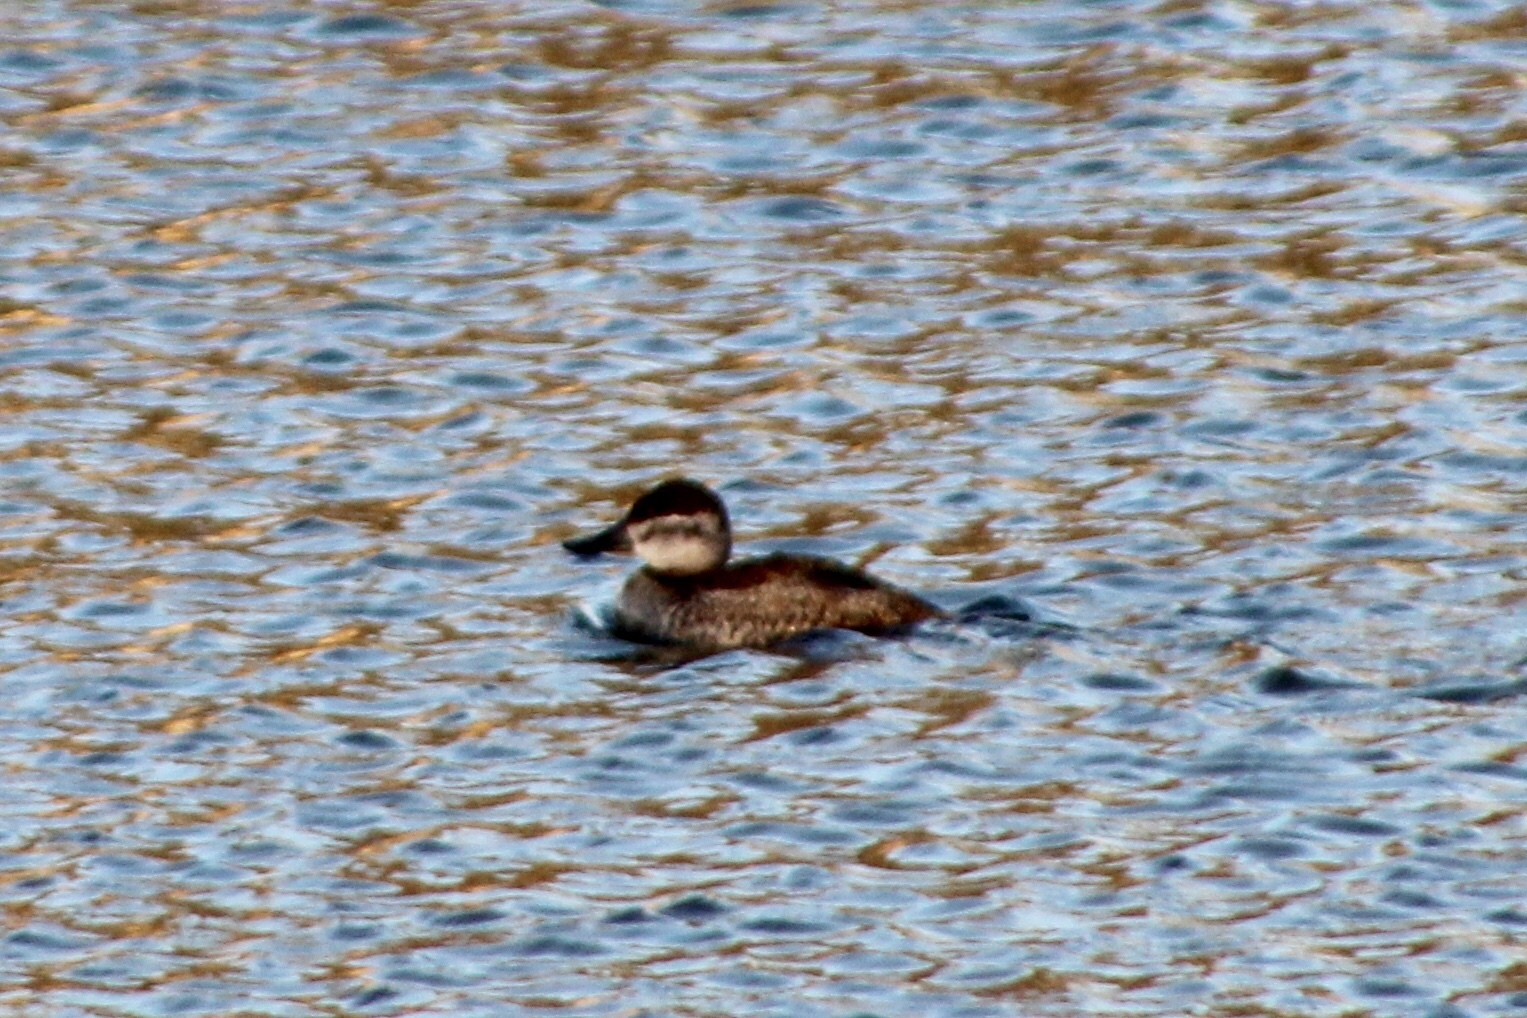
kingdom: Animalia
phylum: Chordata
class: Aves
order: Anseriformes
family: Anatidae
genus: Oxyura
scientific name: Oxyura jamaicensis
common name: Ruddy duck
